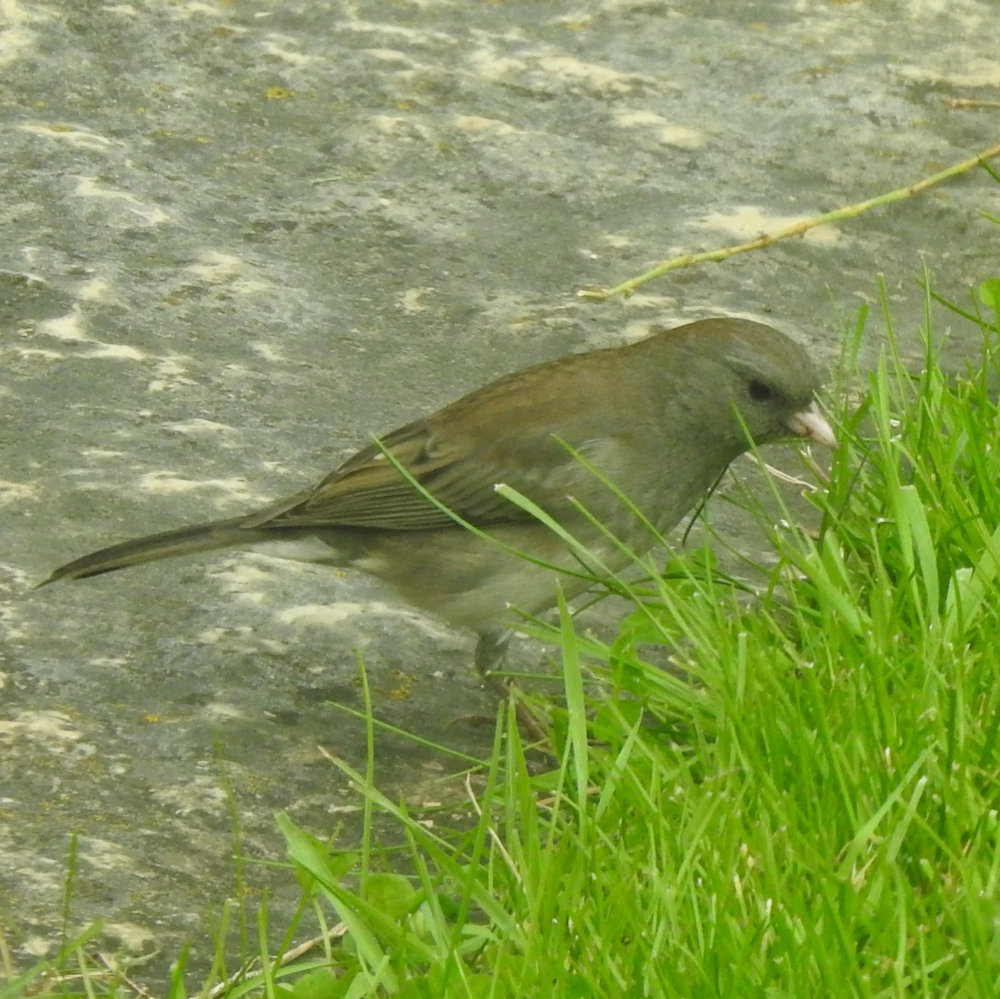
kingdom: Animalia
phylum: Chordata
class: Aves
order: Passeriformes
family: Passerellidae
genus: Junco
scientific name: Junco hyemalis
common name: Dark-eyed junco
